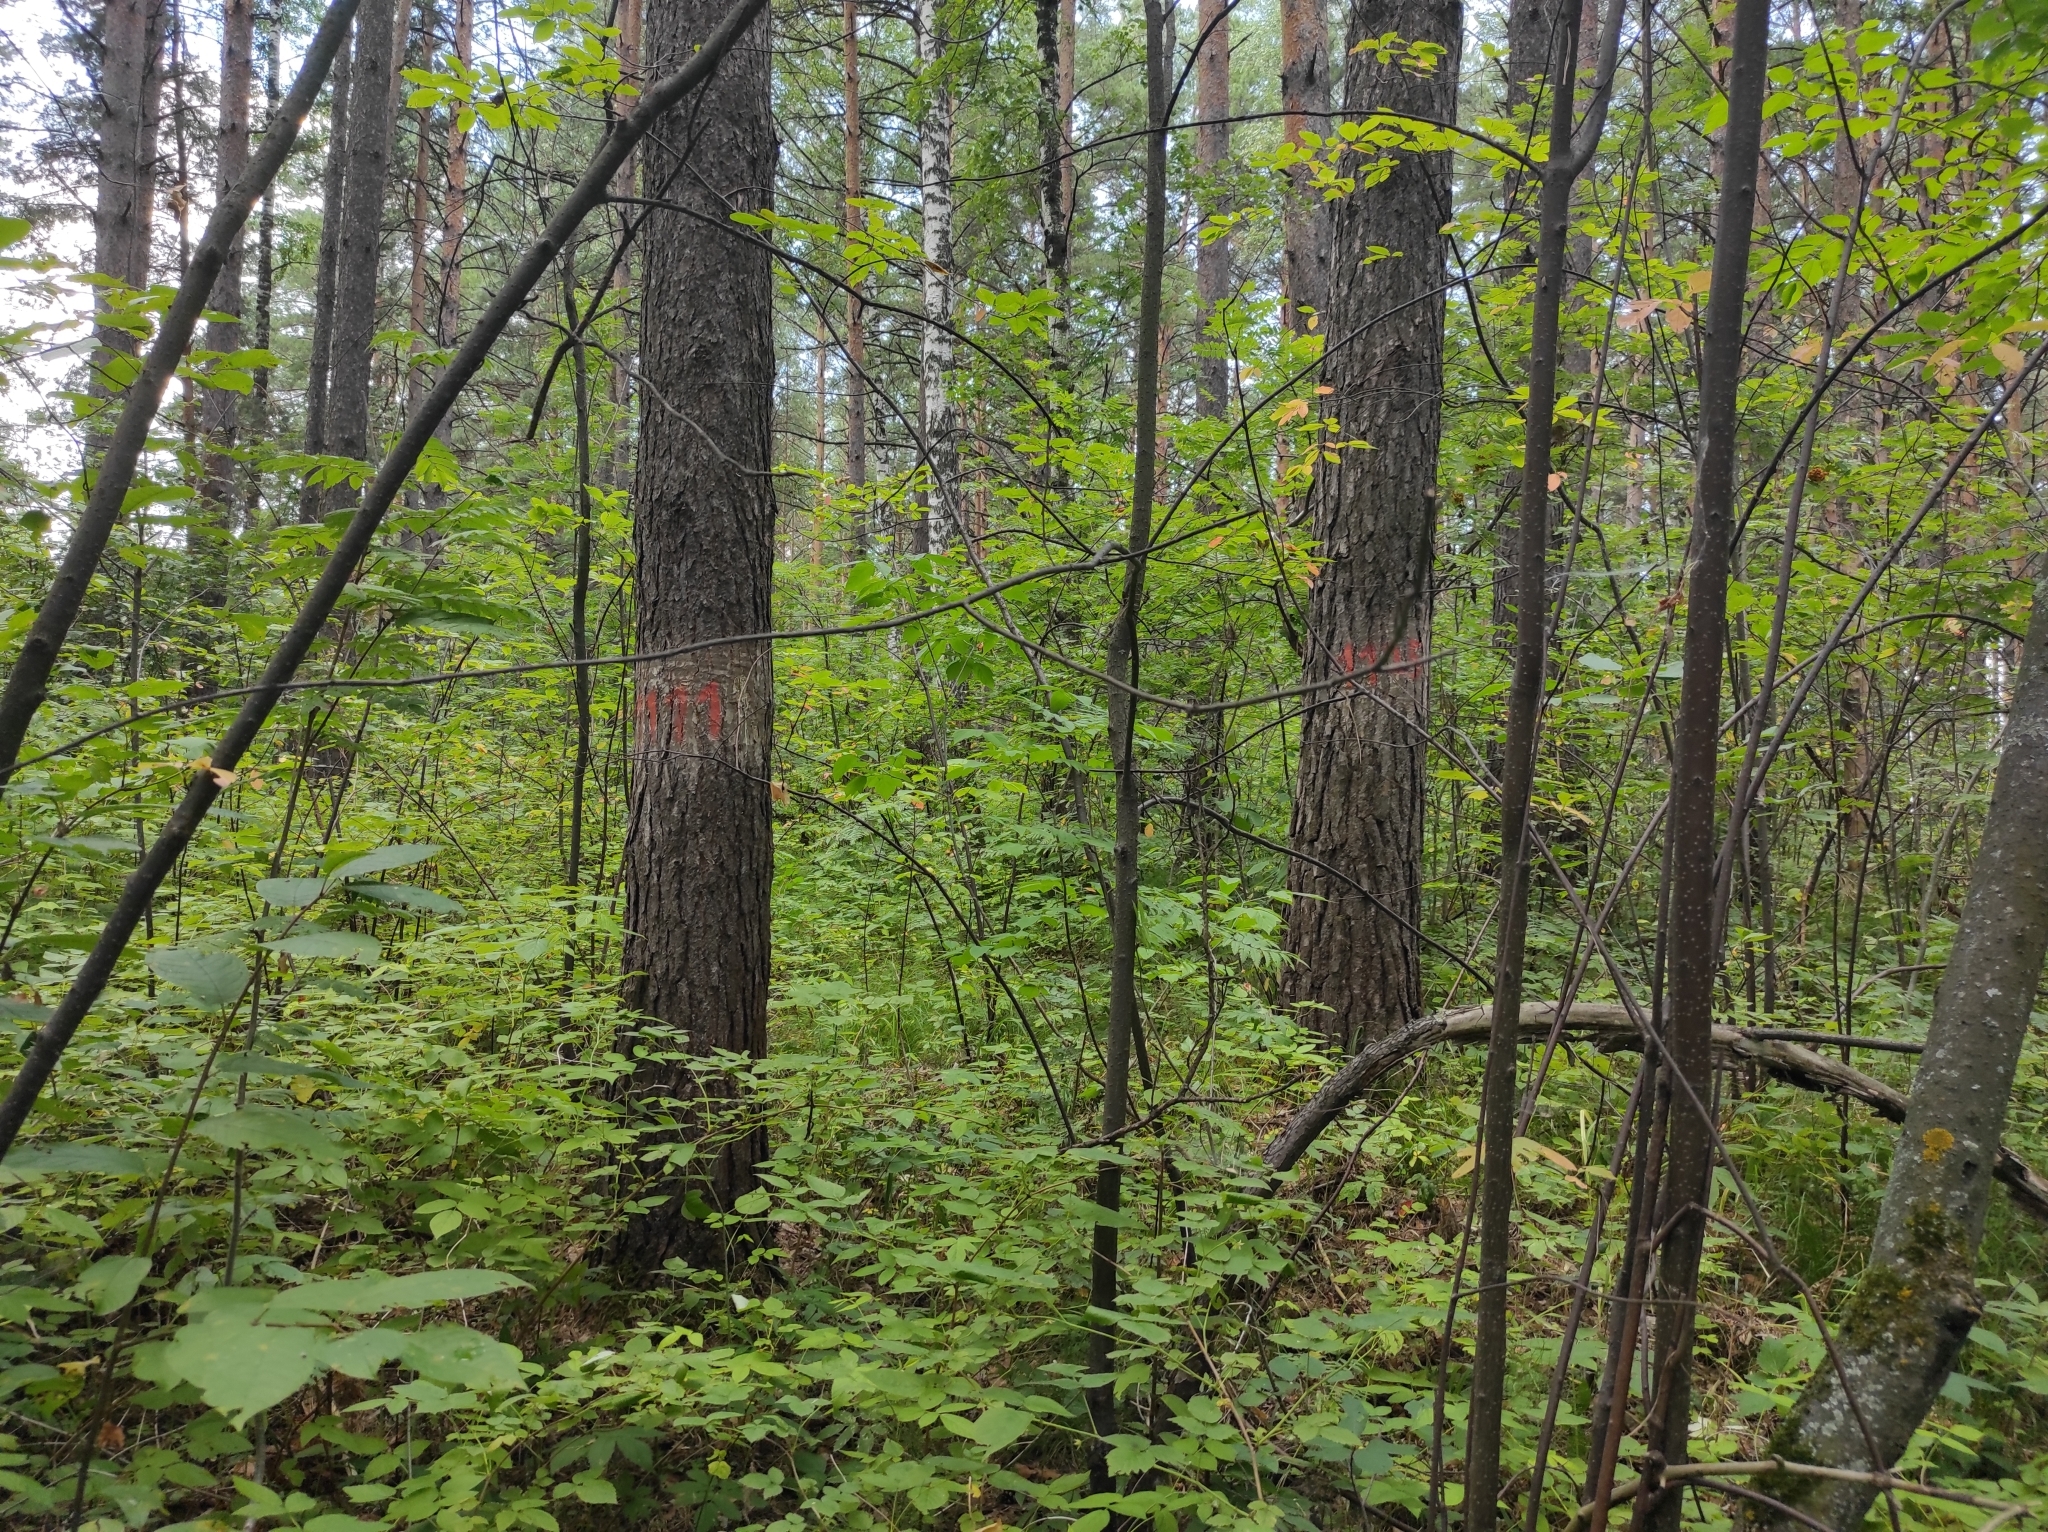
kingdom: Plantae
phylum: Tracheophyta
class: Pinopsida
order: Pinales
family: Pinaceae
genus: Pinus
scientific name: Pinus sylvestris
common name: Scots pine
